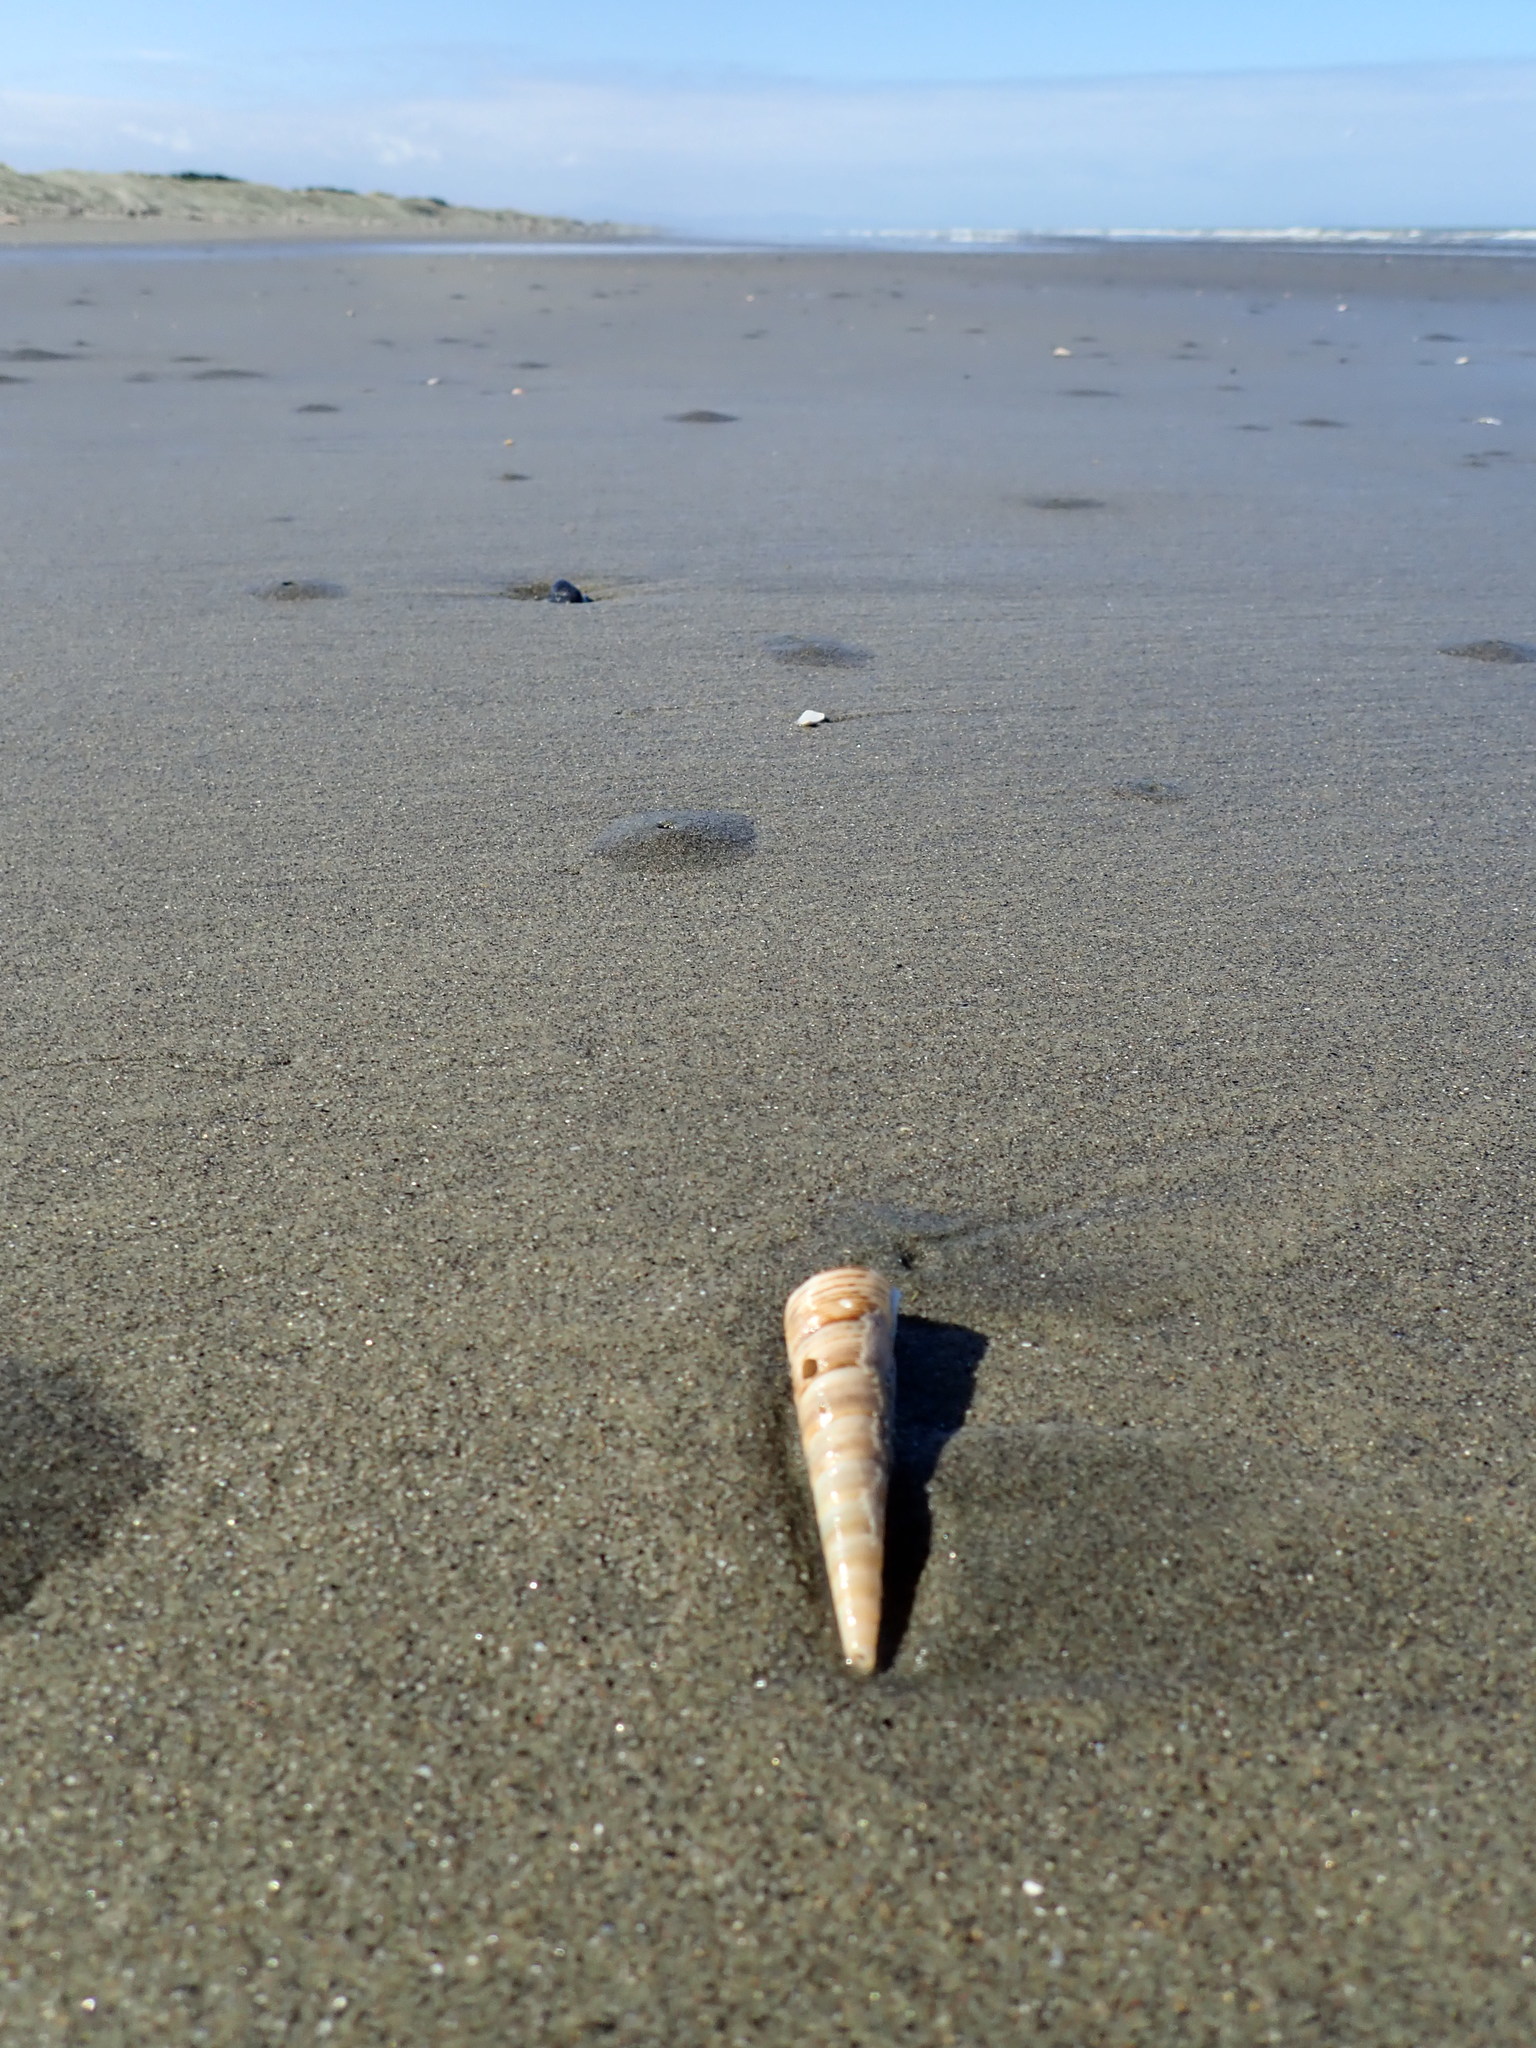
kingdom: Animalia
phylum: Mollusca
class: Gastropoda
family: Turritellidae
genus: Zeacolpus
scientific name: Zeacolpus vittatus
